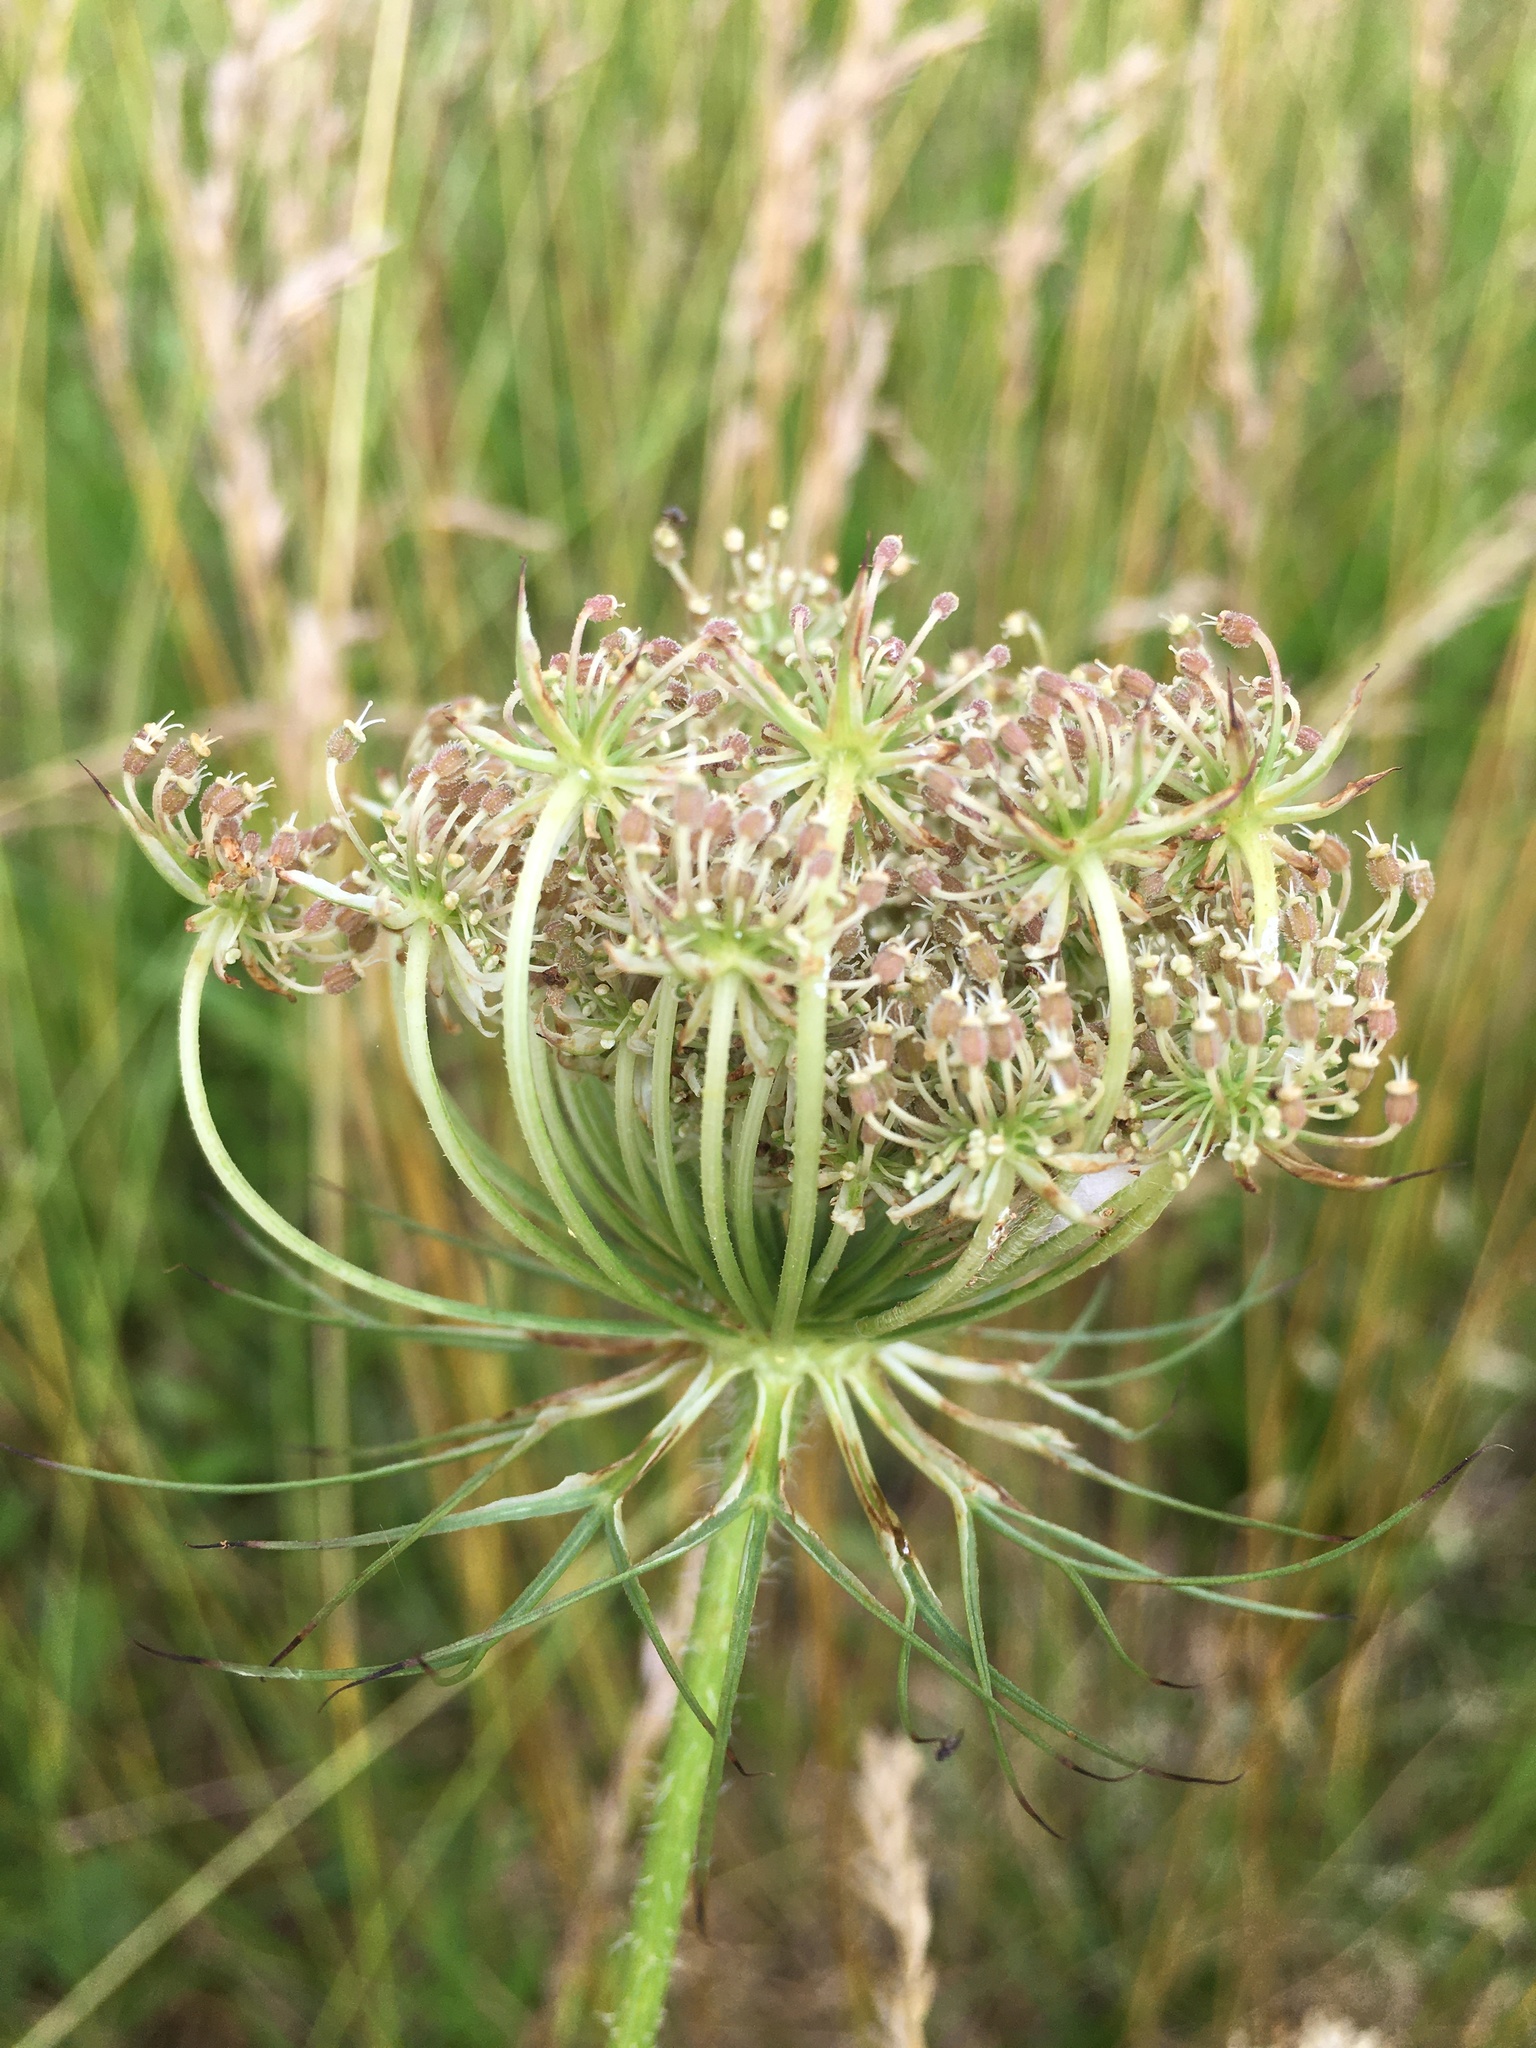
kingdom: Plantae
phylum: Tracheophyta
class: Magnoliopsida
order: Apiales
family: Apiaceae
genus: Daucus
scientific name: Daucus carota
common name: Wild carrot
